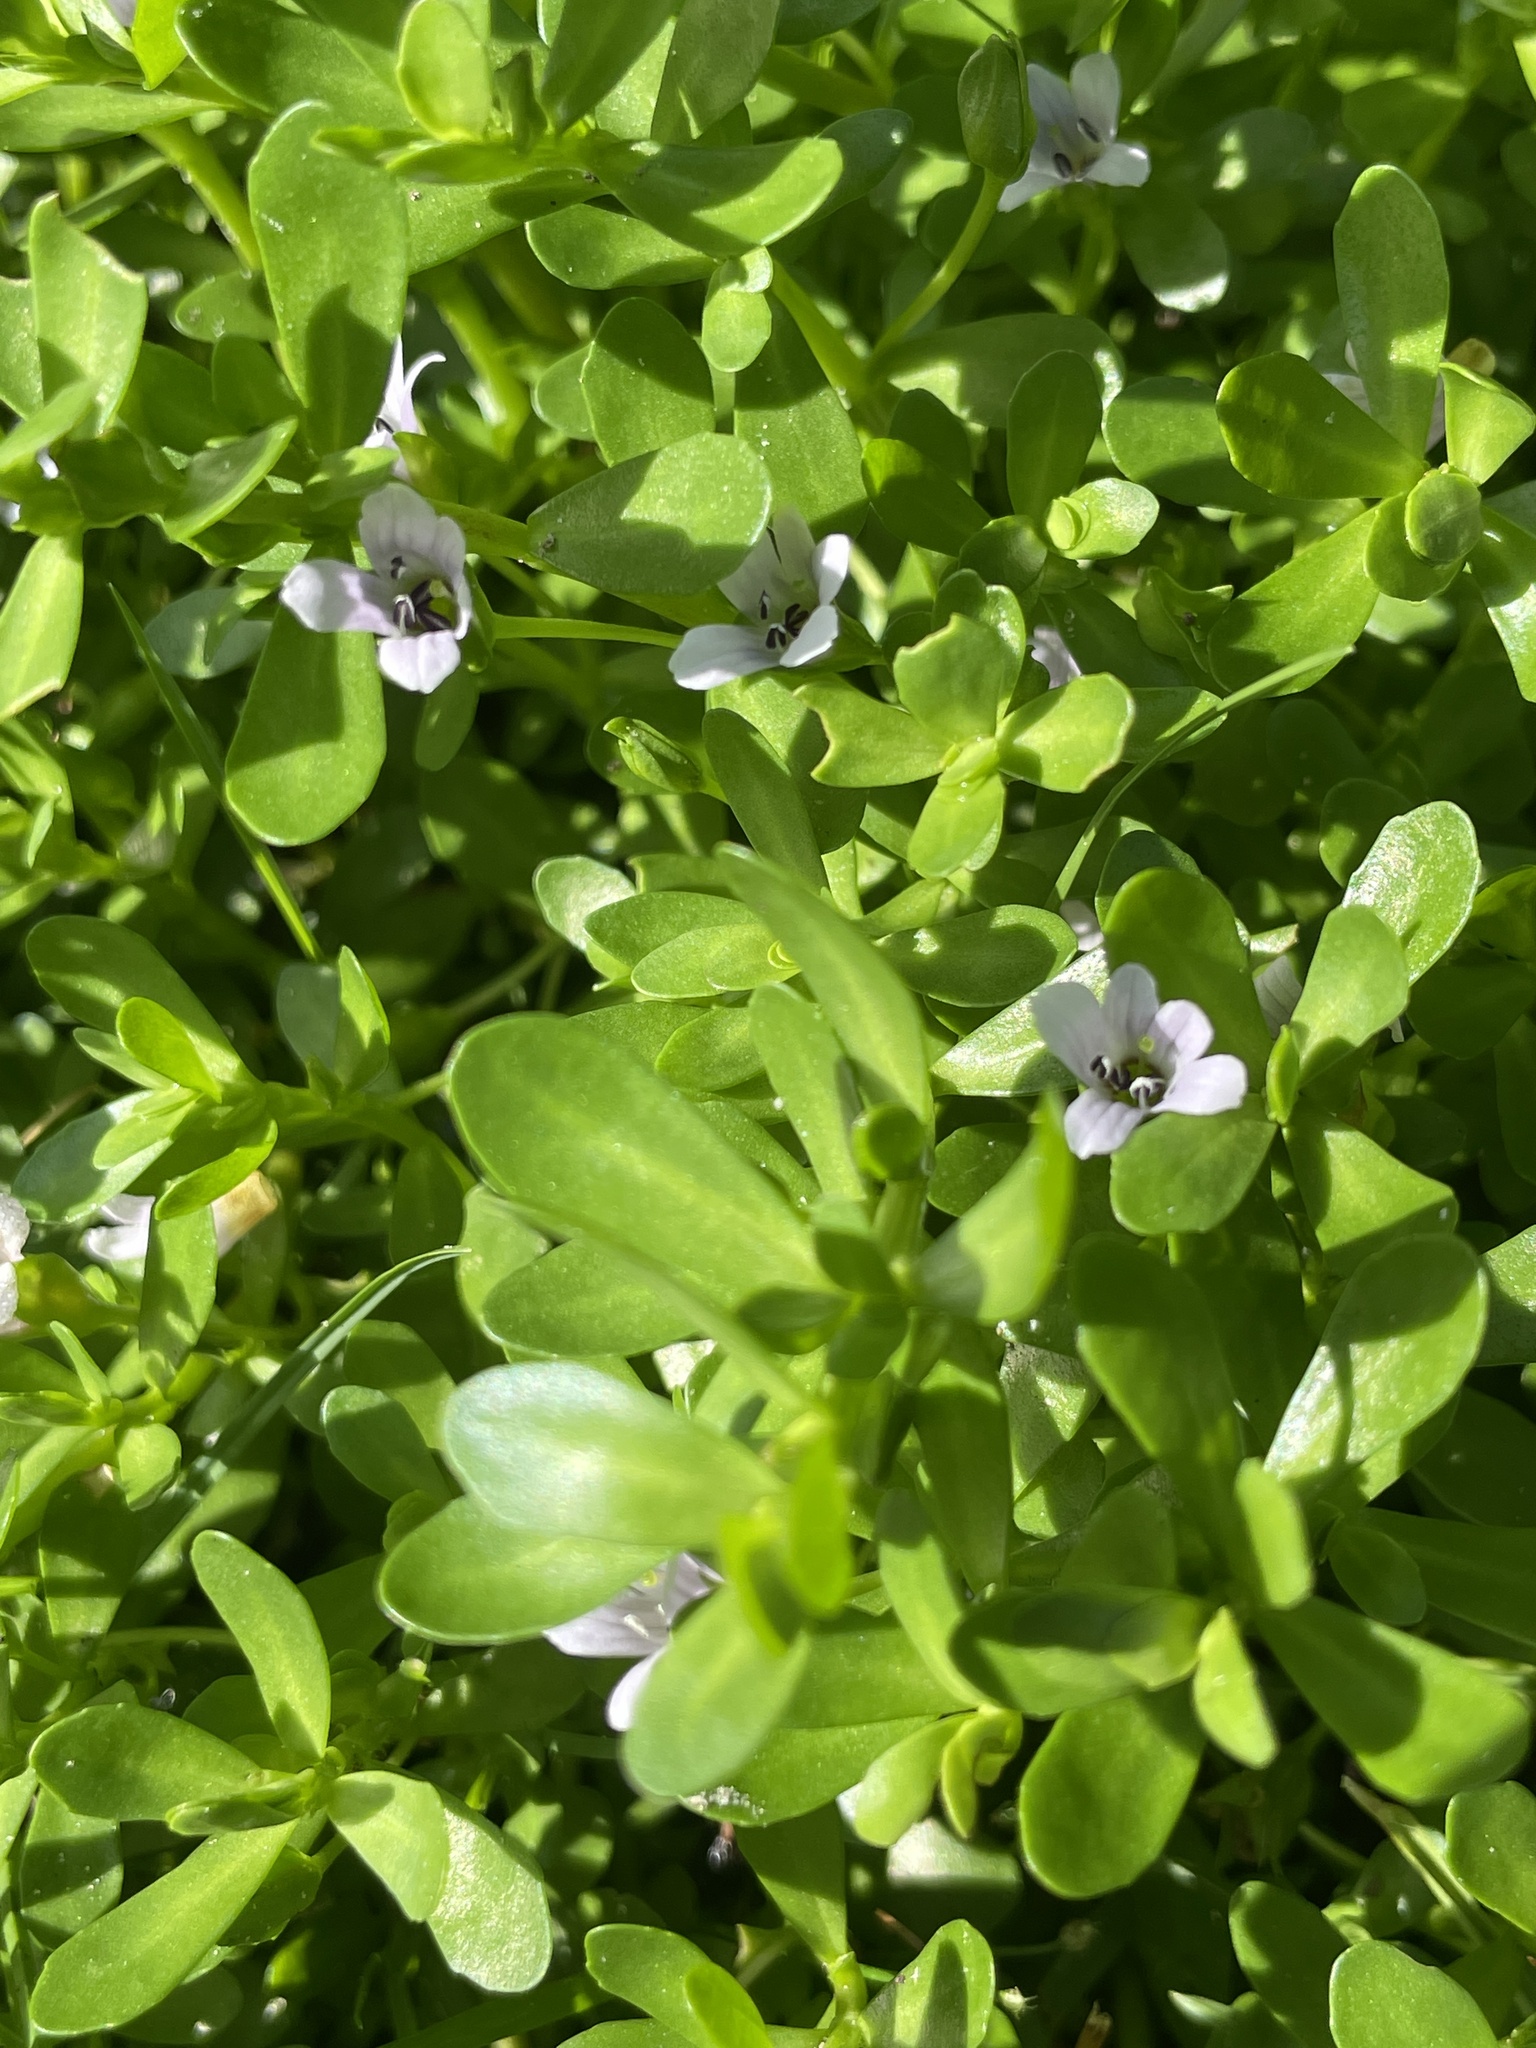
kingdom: Plantae
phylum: Tracheophyta
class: Magnoliopsida
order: Lamiales
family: Plantaginaceae
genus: Bacopa
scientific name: Bacopa monnieri
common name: Indian-pennywort
